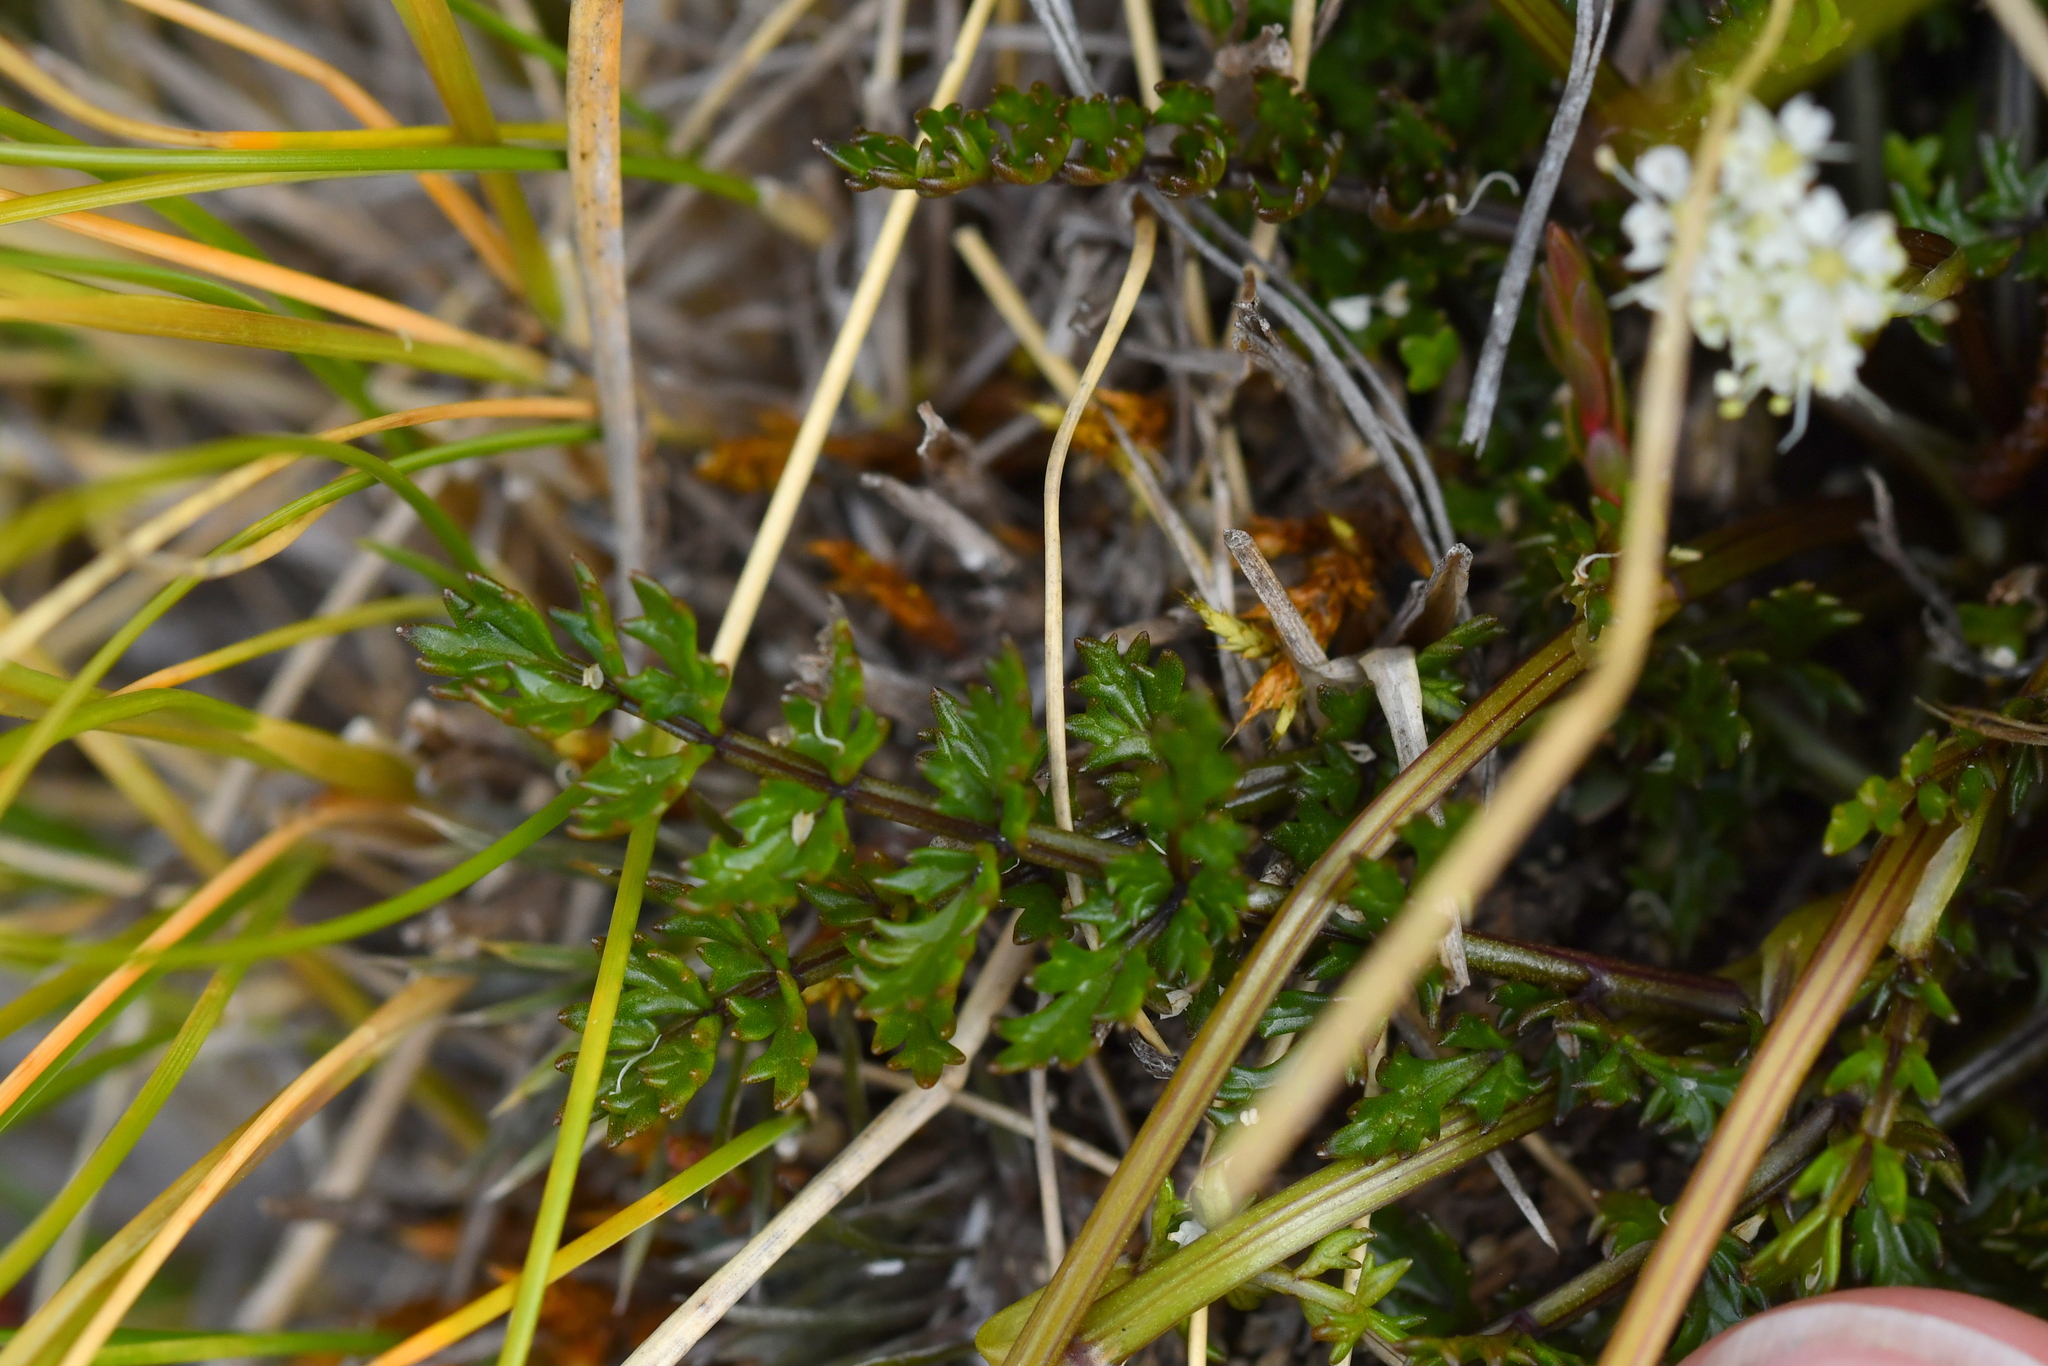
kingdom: Plantae
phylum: Tracheophyta
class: Magnoliopsida
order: Apiales
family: Apiaceae
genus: Gingidia
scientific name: Gingidia decipiens
